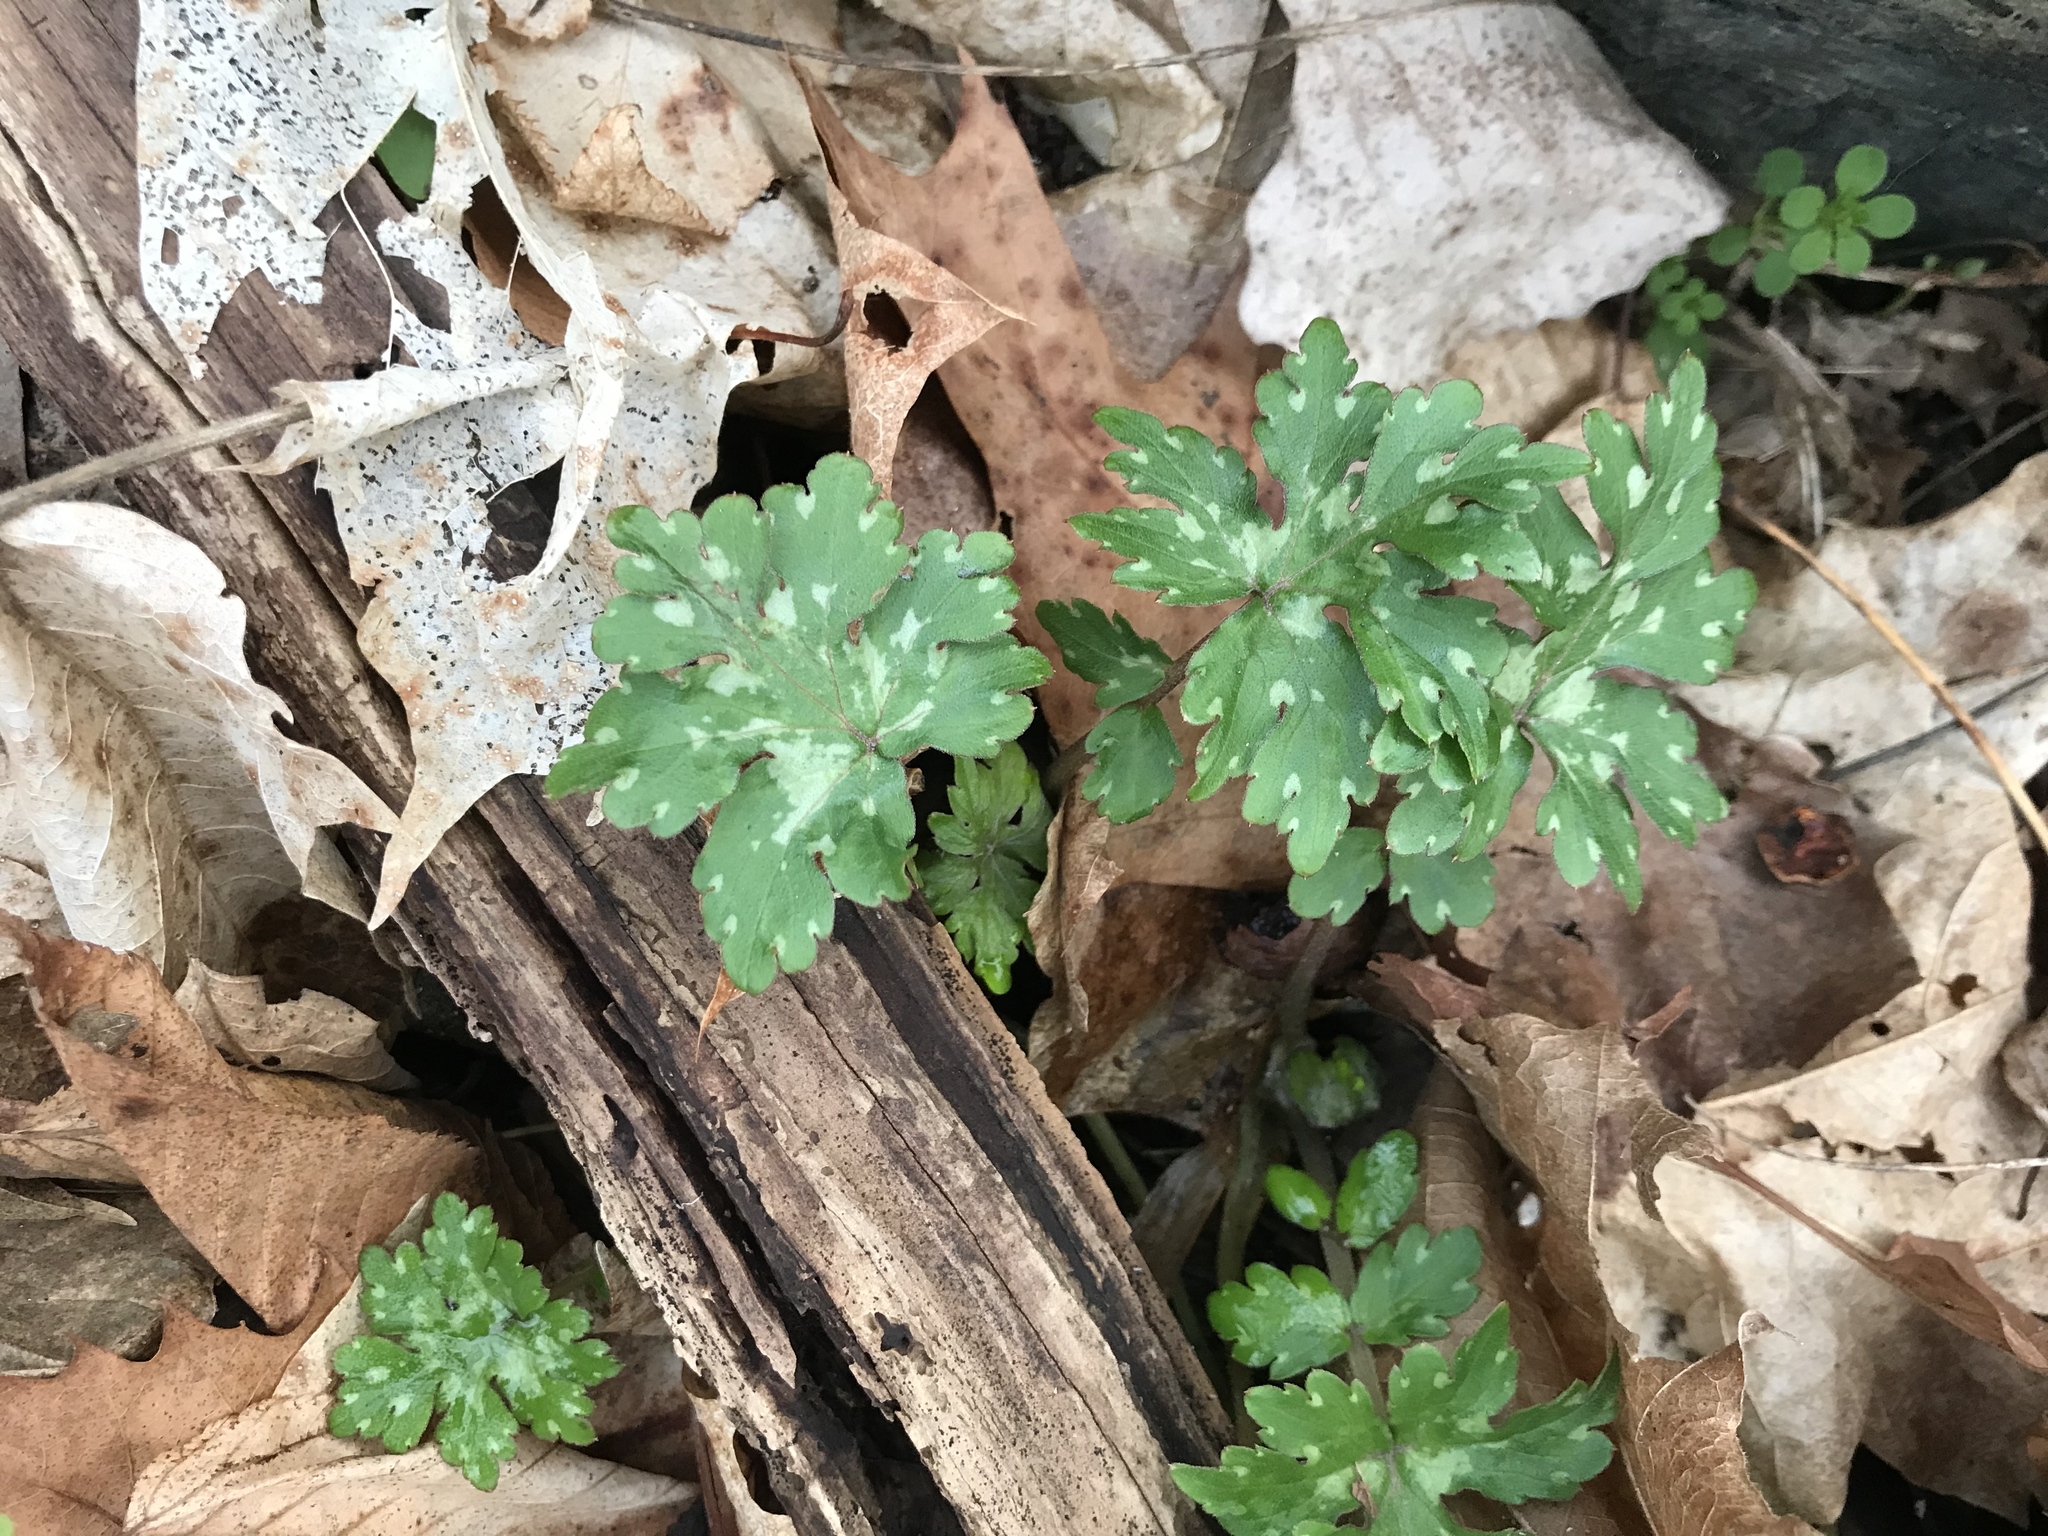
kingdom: Plantae
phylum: Tracheophyta
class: Magnoliopsida
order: Boraginales
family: Hydrophyllaceae
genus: Hydrophyllum
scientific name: Hydrophyllum canadense
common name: Canada waterleaf
